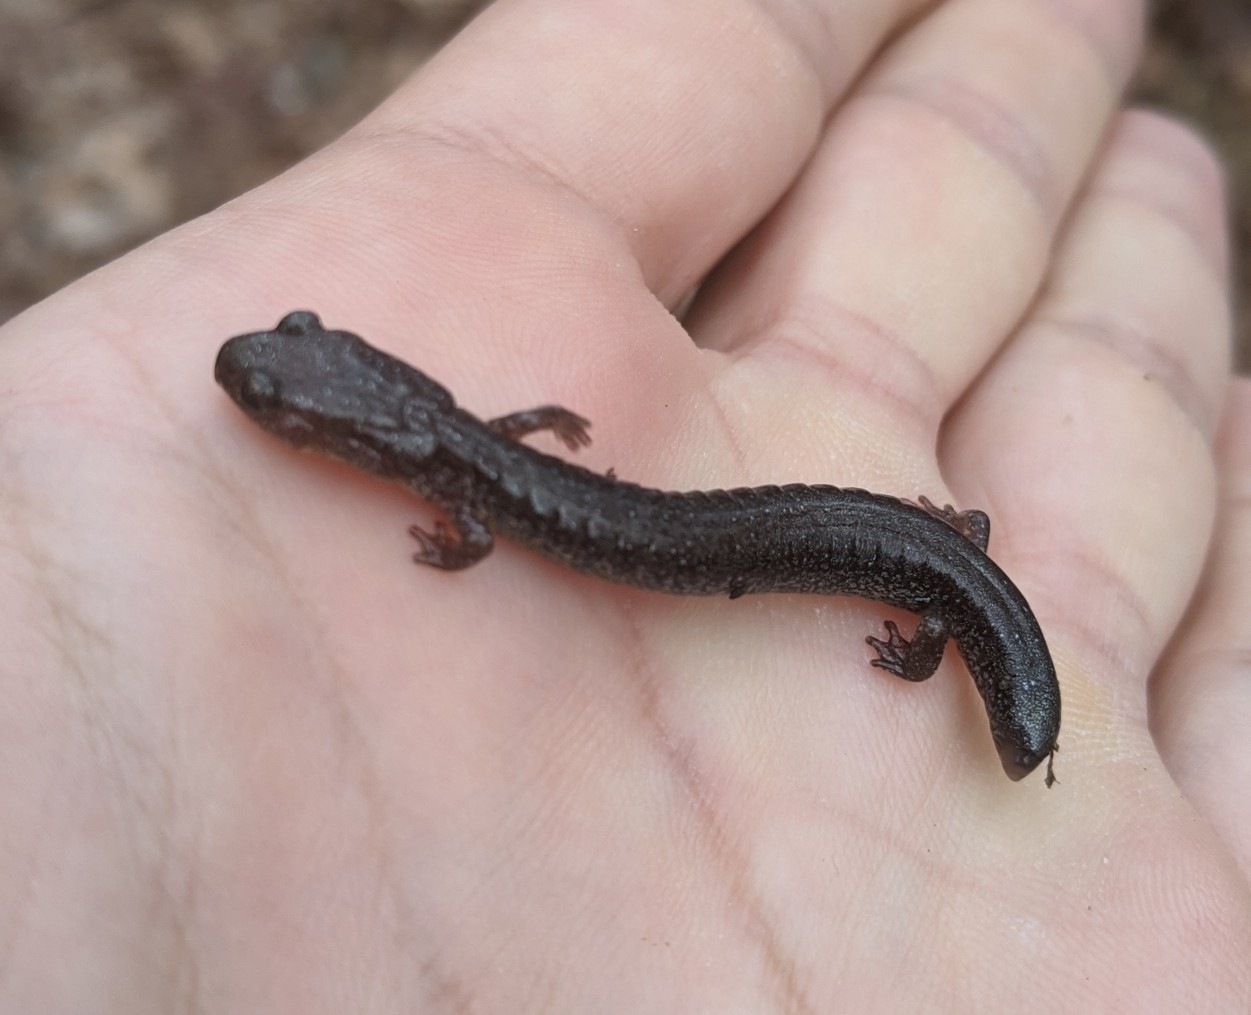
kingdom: Animalia
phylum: Chordata
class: Amphibia
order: Caudata
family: Plethodontidae
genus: Plethodon
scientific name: Plethodon cinereus
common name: Redback salamander
